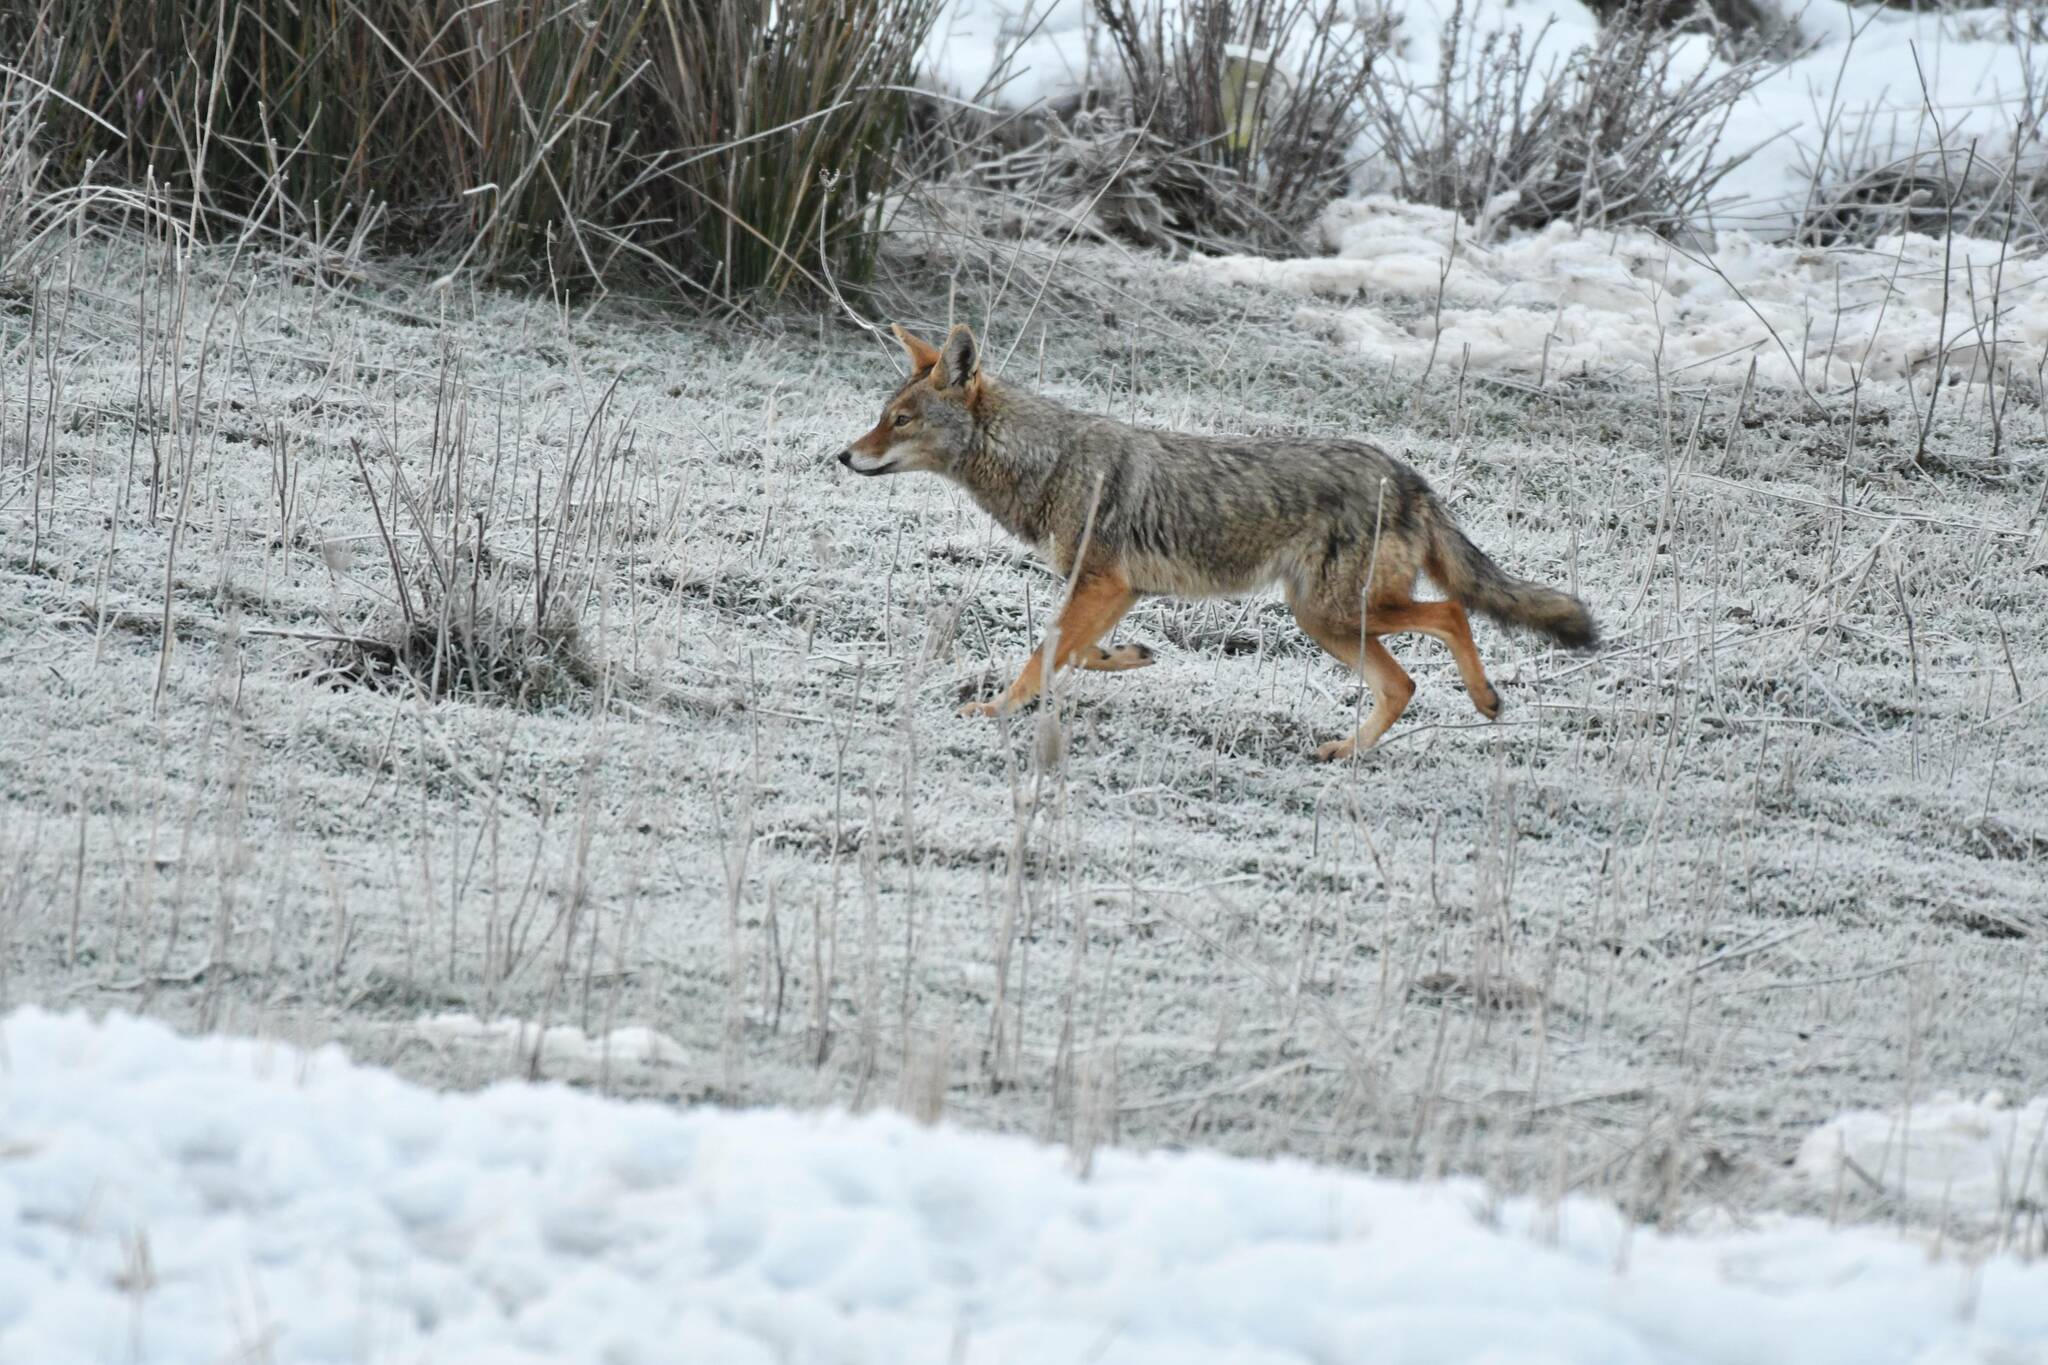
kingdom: Animalia
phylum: Chordata
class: Mammalia
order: Carnivora
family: Canidae
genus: Canis
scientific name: Canis lupaster
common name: African golden wolf
